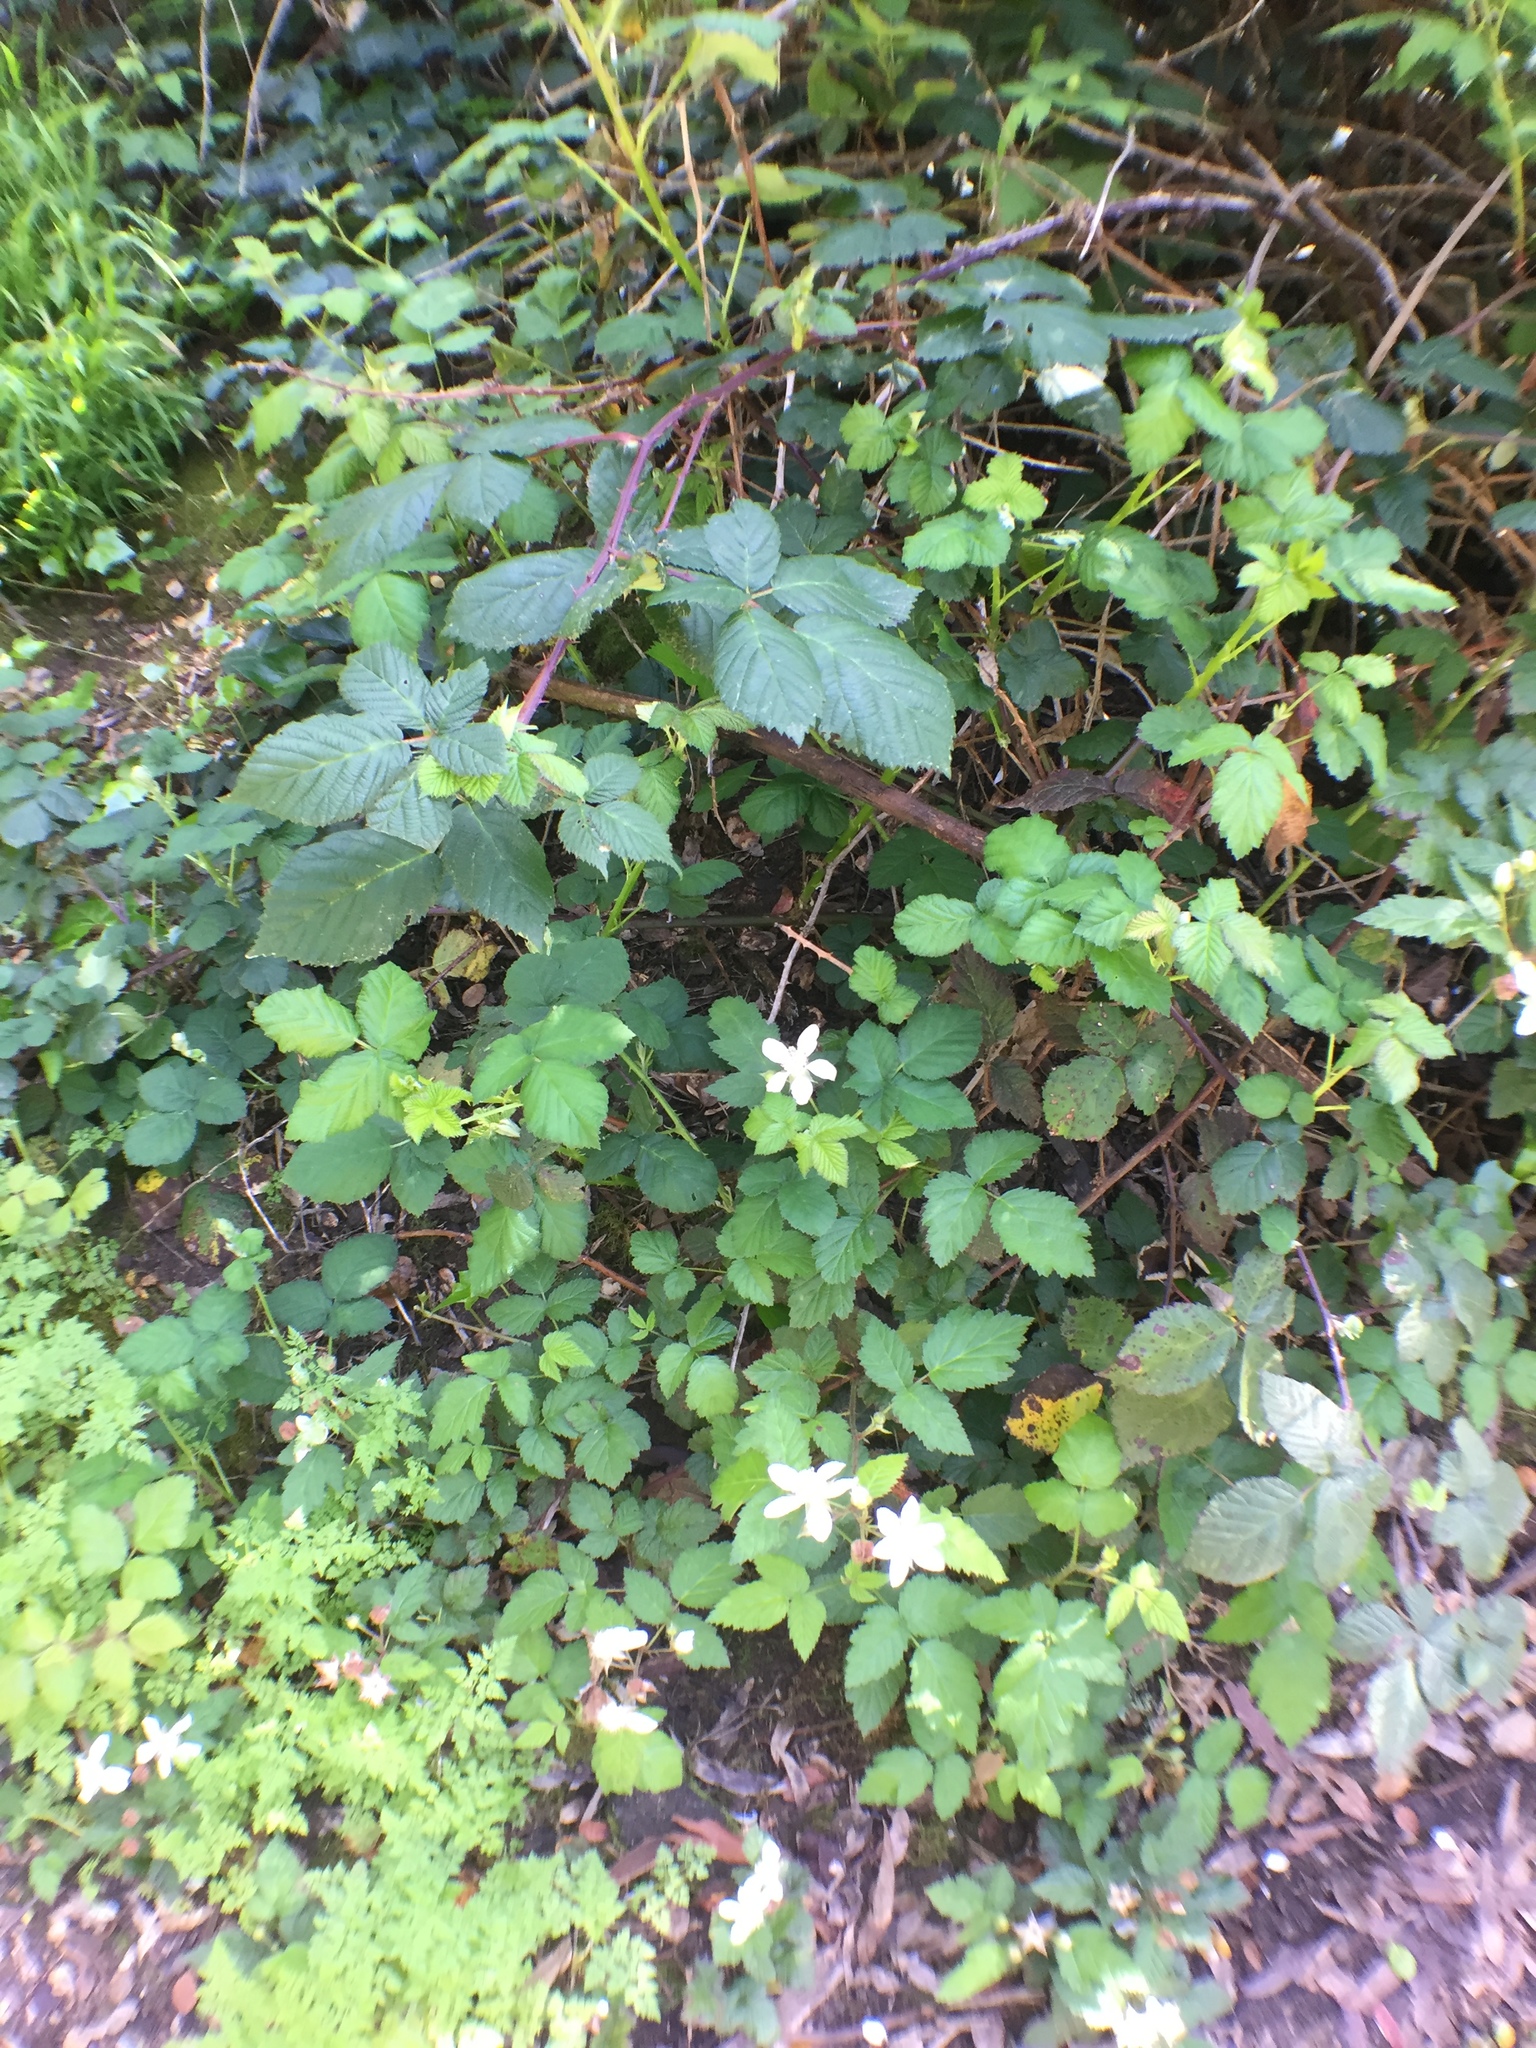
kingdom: Plantae
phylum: Tracheophyta
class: Magnoliopsida
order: Rosales
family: Rosaceae
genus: Rubus
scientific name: Rubus armeniacus
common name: Himalayan blackberry
